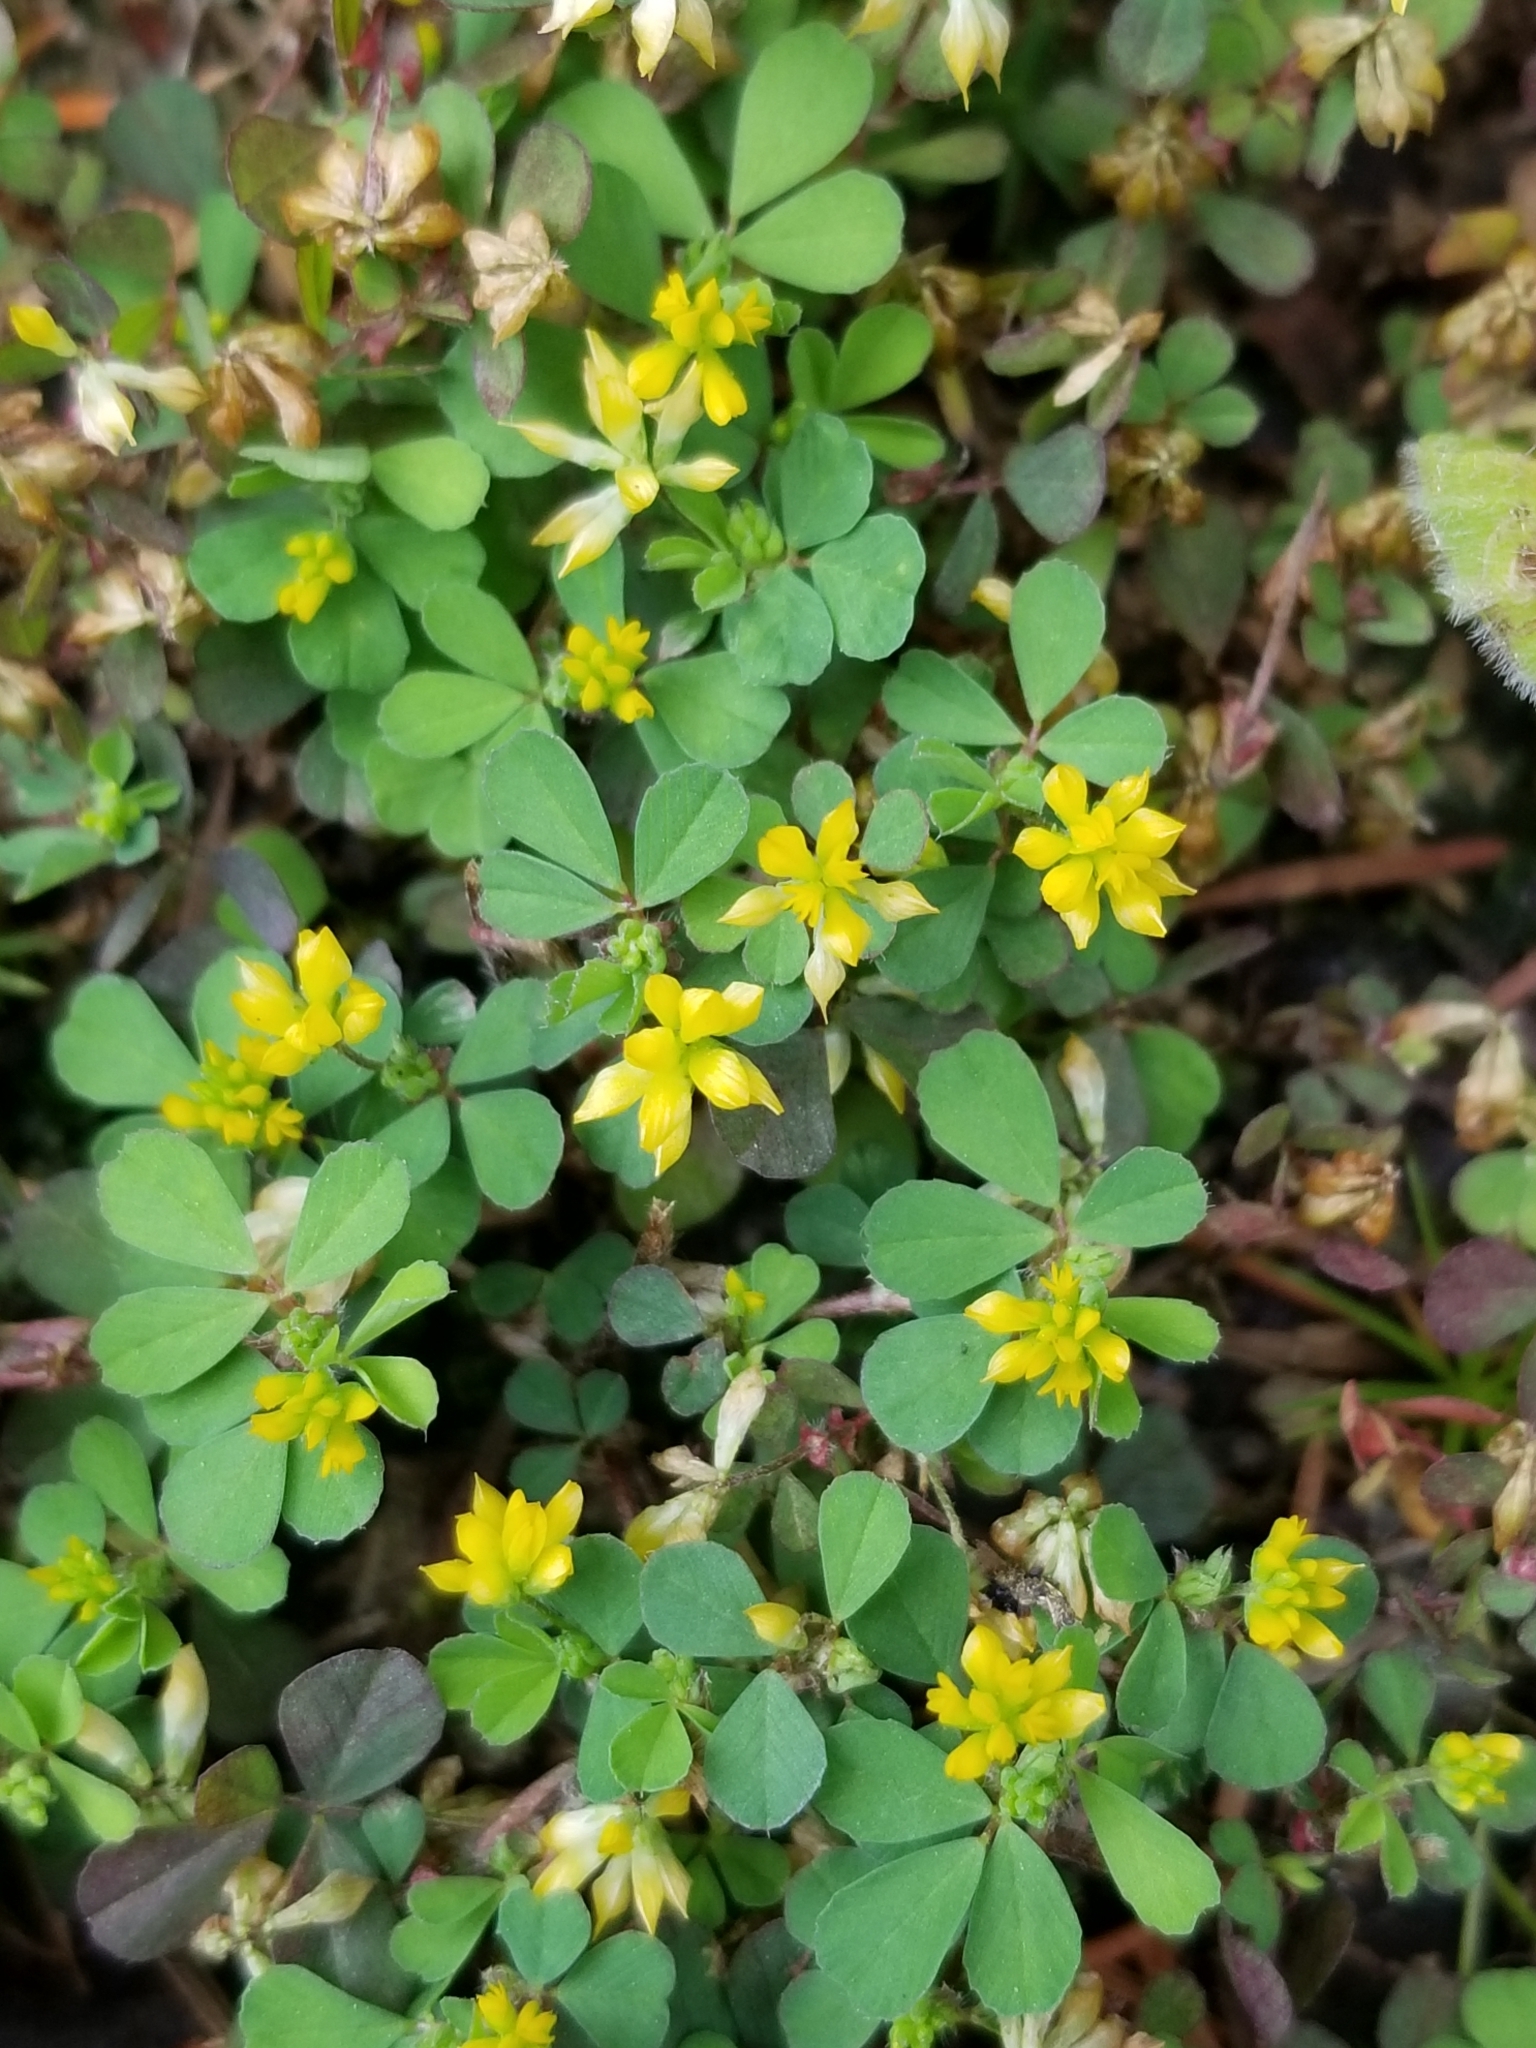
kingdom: Plantae
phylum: Tracheophyta
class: Magnoliopsida
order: Fabales
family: Fabaceae
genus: Trifolium
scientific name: Trifolium dubium
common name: Suckling clover
